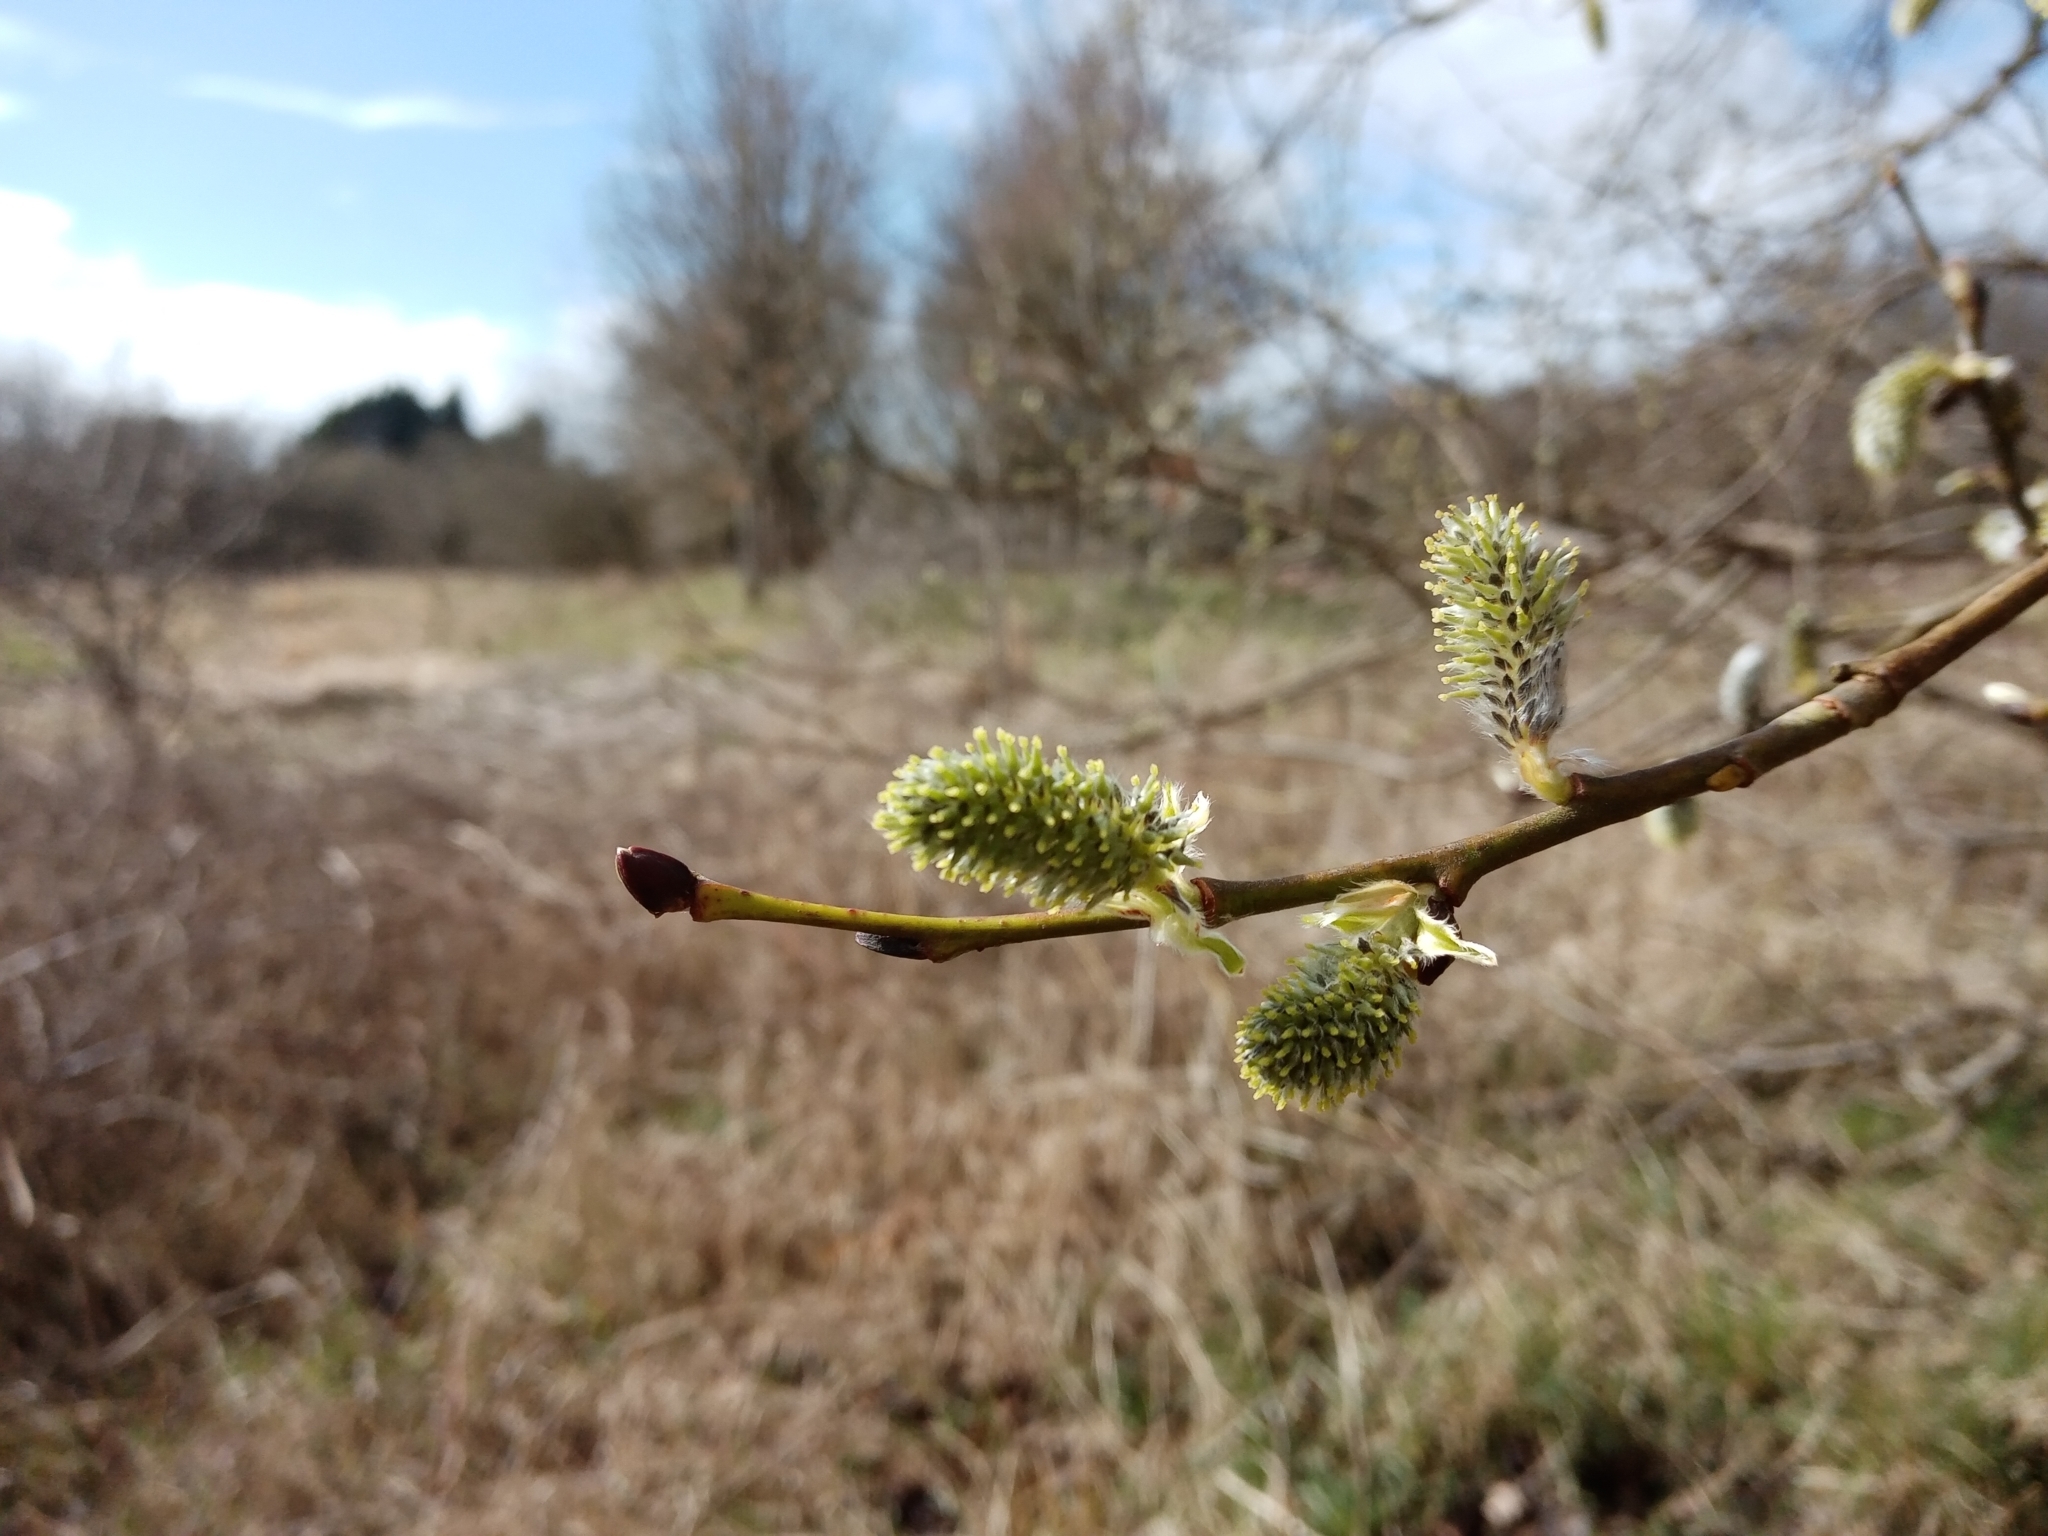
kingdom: Plantae
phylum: Tracheophyta
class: Magnoliopsida
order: Malpighiales
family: Salicaceae
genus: Salix
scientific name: Salix caprea
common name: Goat willow
